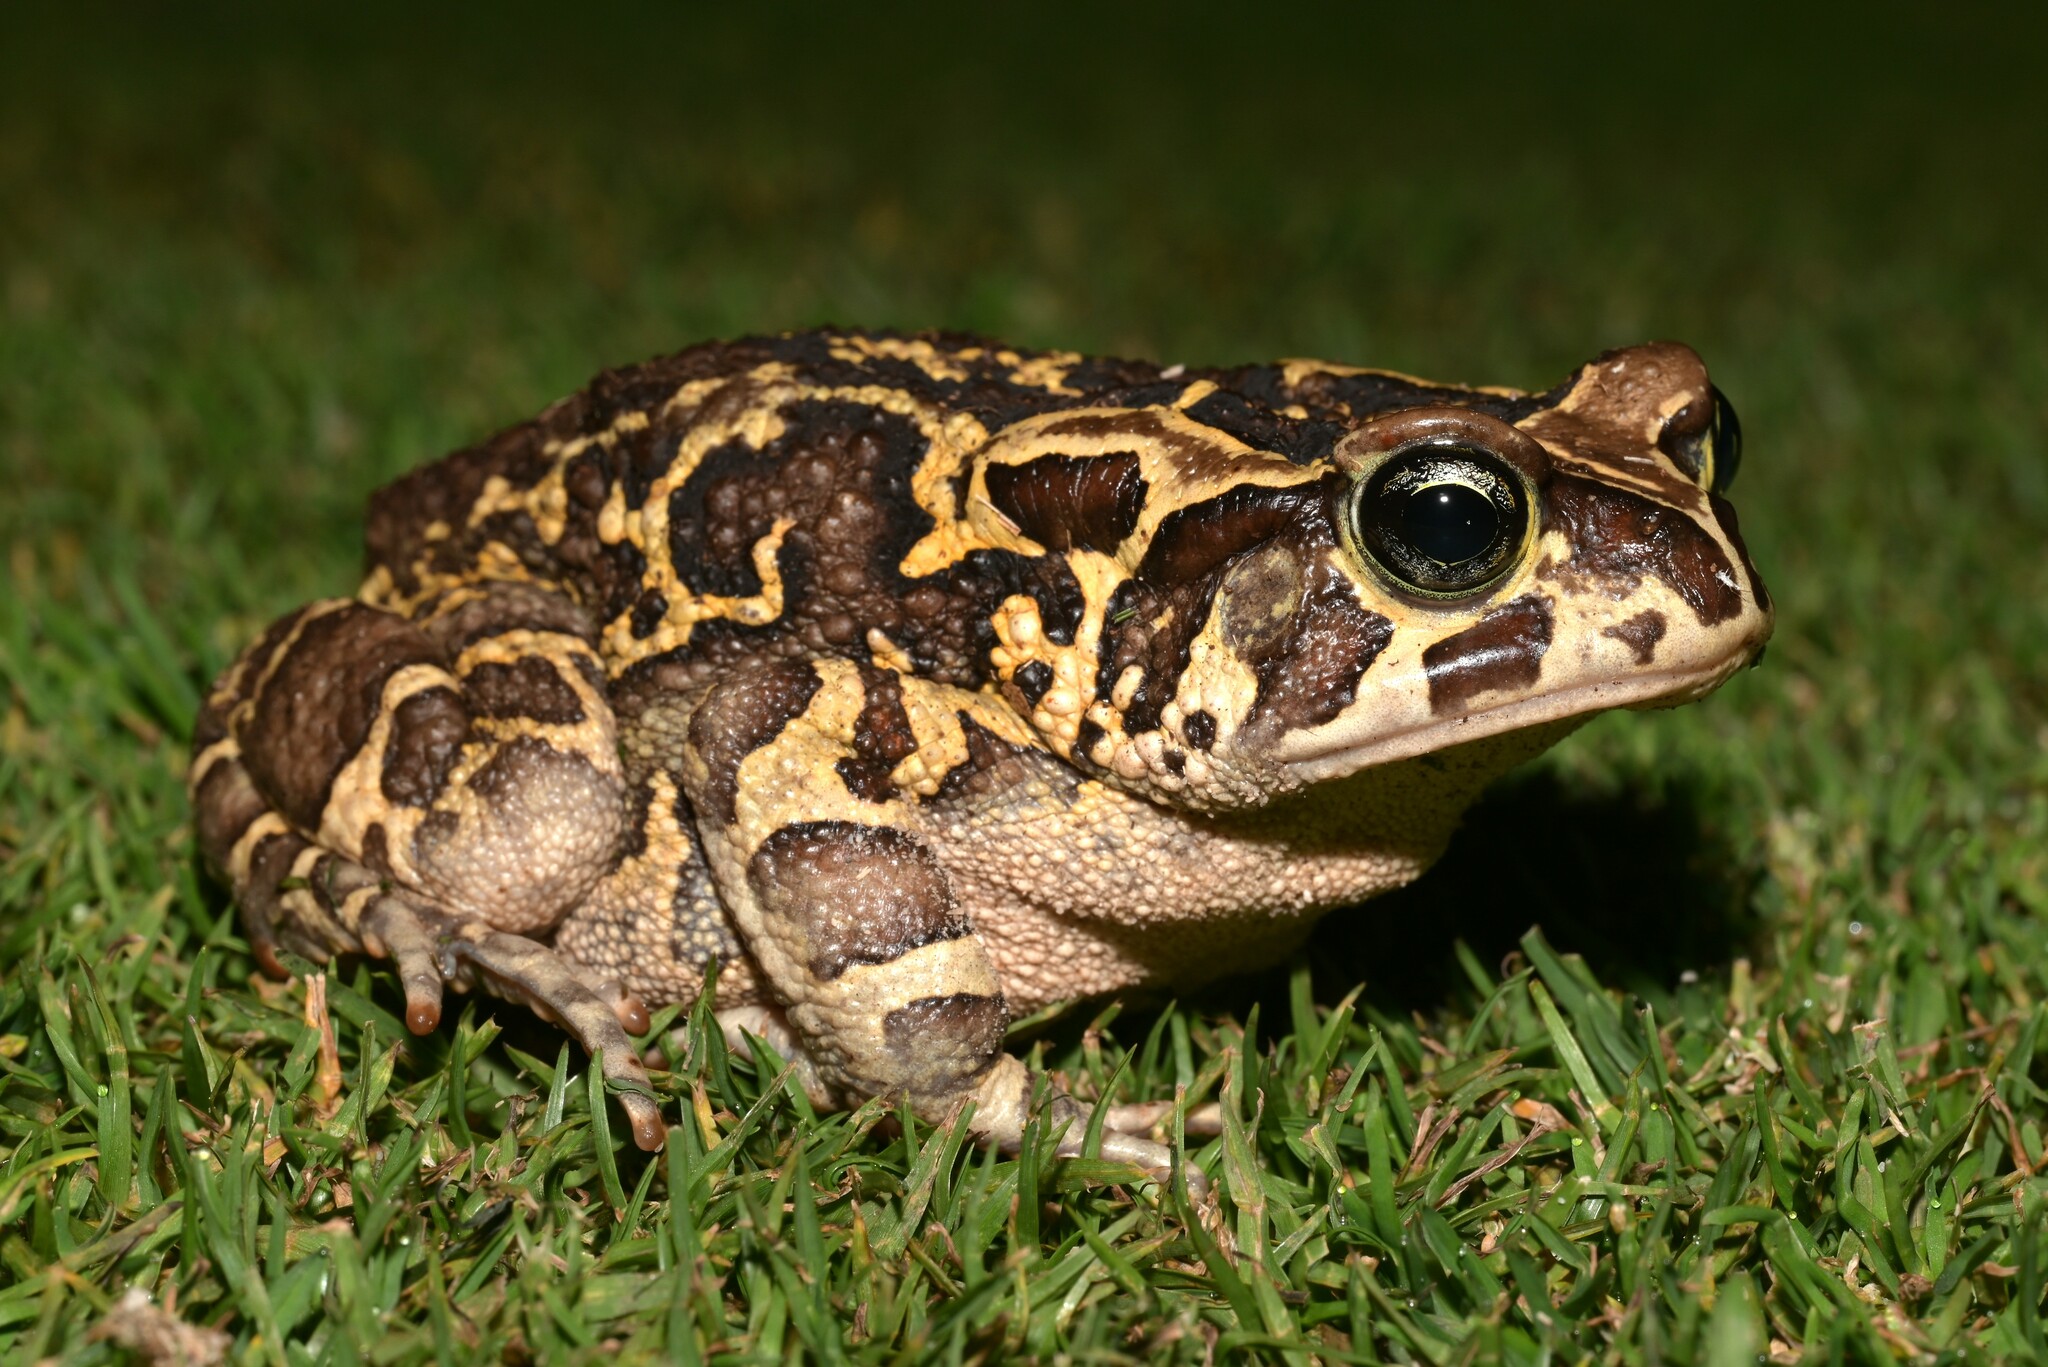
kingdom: Animalia
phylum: Chordata
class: Amphibia
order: Anura
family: Bufonidae
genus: Sclerophrys
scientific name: Sclerophrys pantherina
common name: Panther toad
